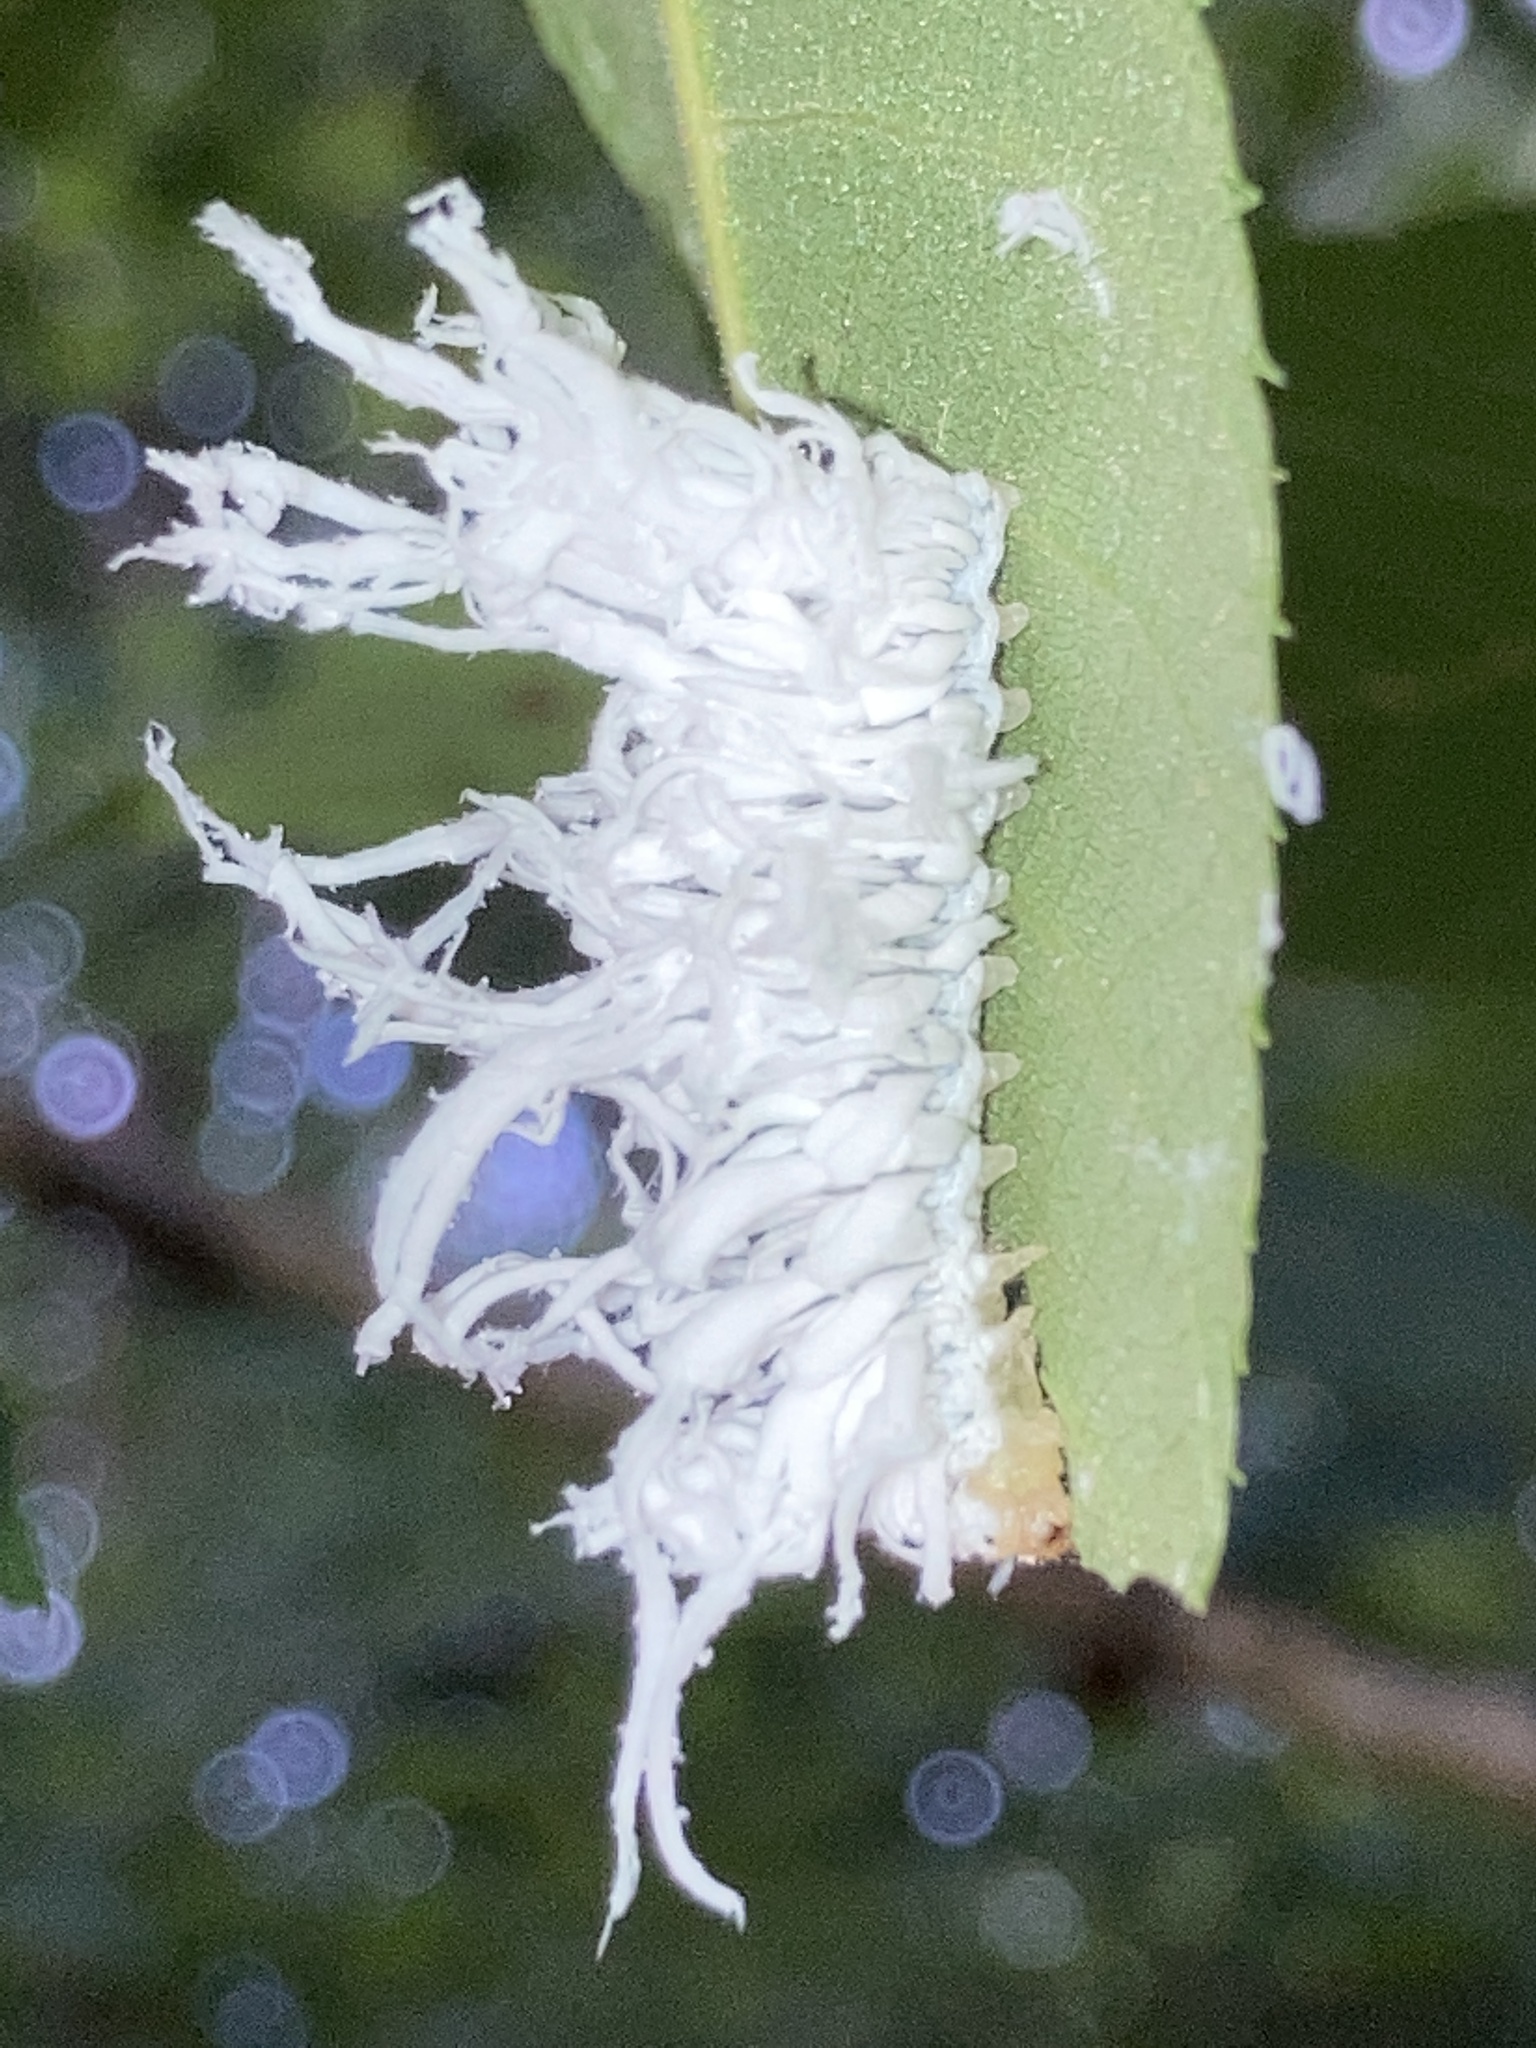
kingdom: Animalia
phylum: Arthropoda
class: Insecta
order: Hymenoptera
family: Tenthredinidae
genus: Eriocampa
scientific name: Eriocampa juglandis
